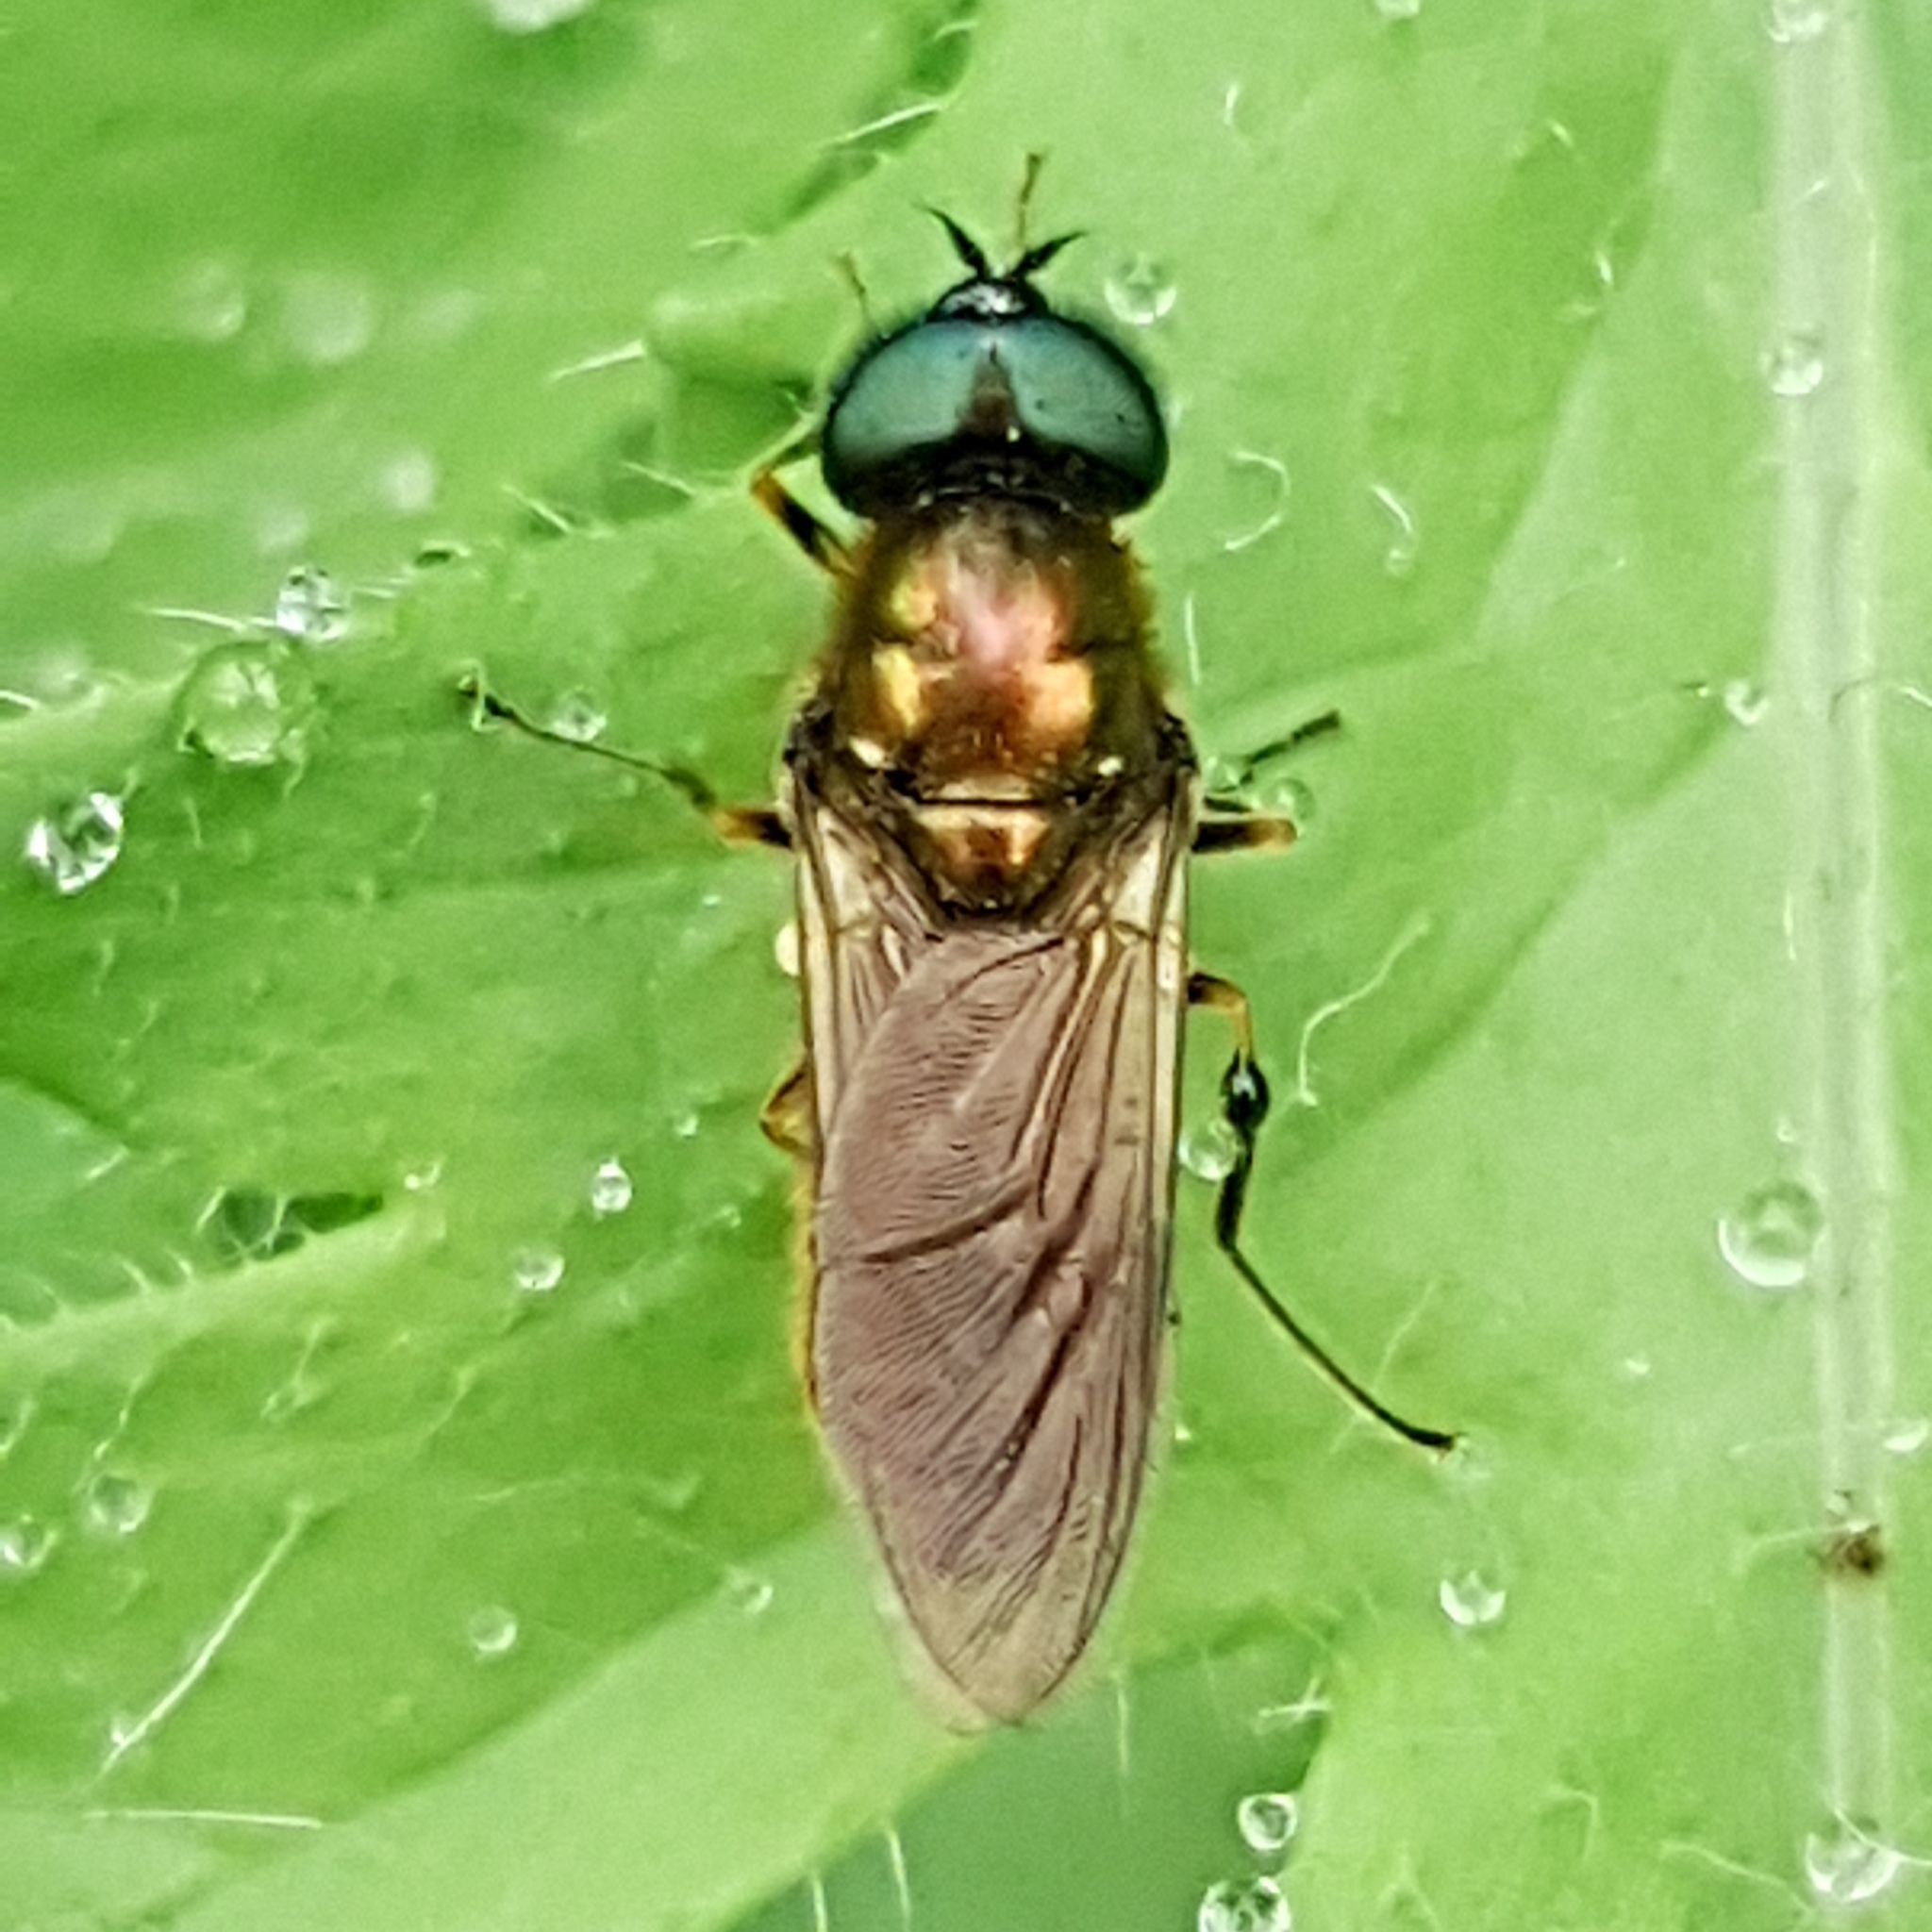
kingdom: Animalia
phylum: Arthropoda
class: Insecta
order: Diptera
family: Stratiomyidae
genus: Chloromyia
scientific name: Chloromyia formosa
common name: Soldier fly
